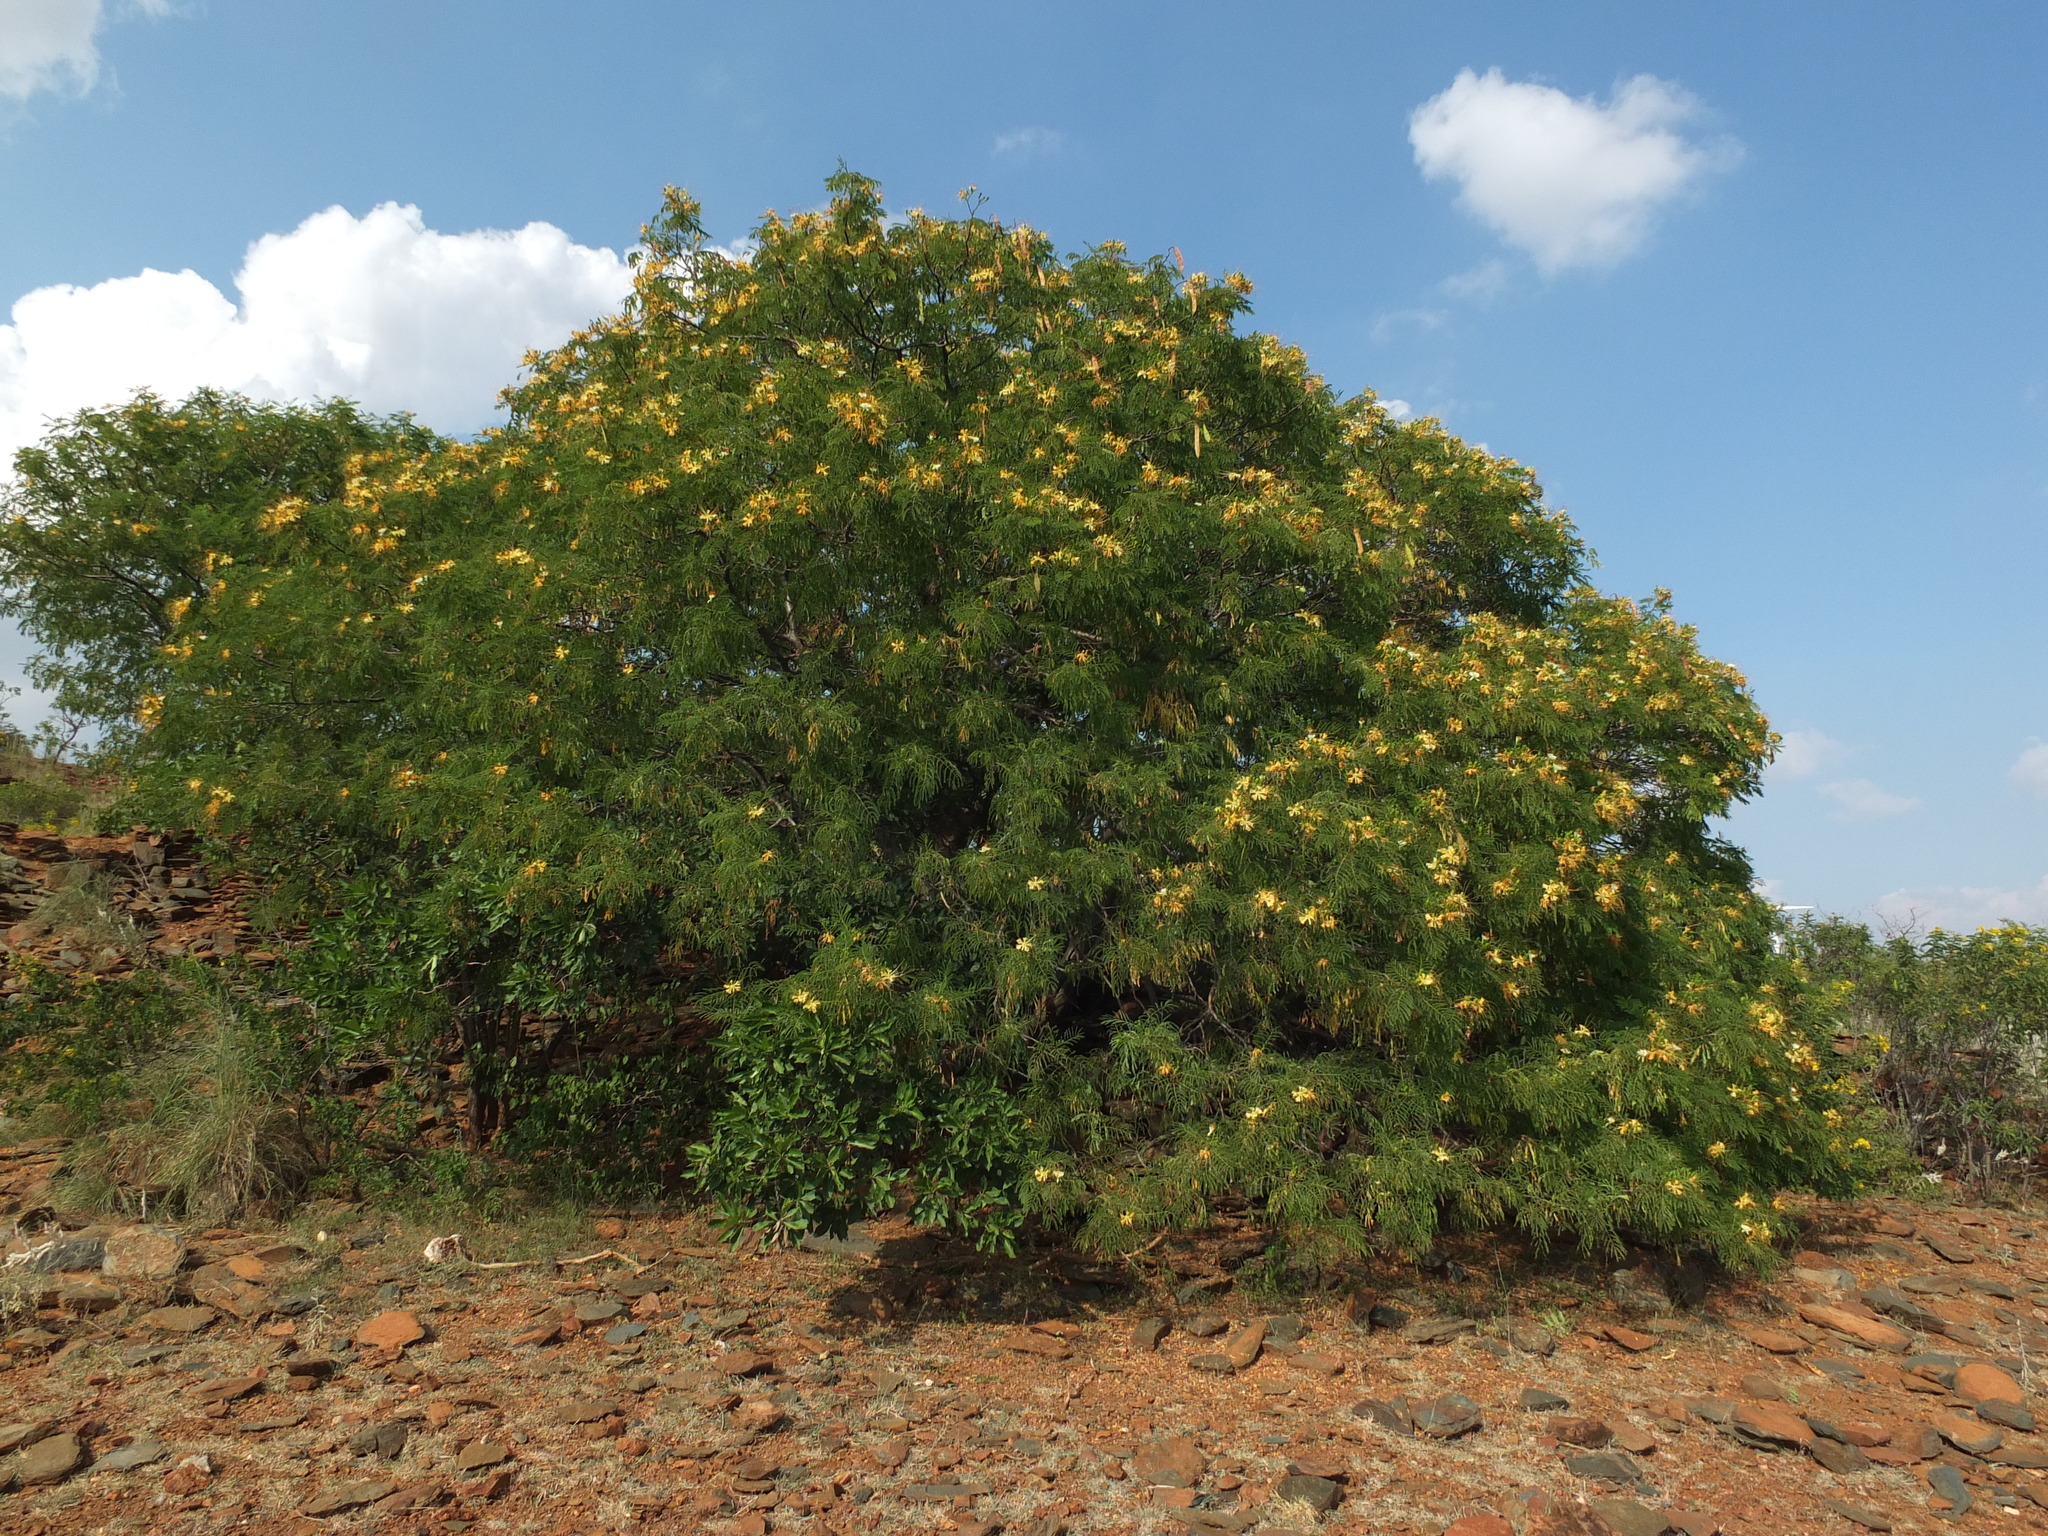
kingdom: Plantae
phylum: Tracheophyta
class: Magnoliopsida
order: Fabales
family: Fabaceae
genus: Delonix
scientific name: Delonix elata
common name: Creamy peacock flower
